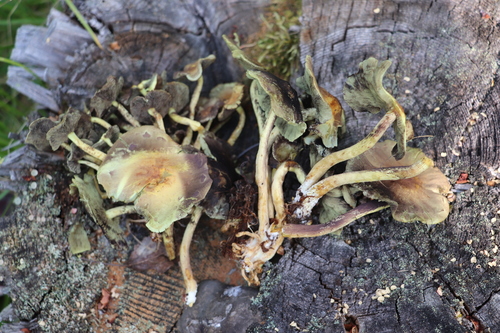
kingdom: Fungi
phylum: Basidiomycota
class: Agaricomycetes
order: Agaricales
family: Strophariaceae
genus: Hypholoma
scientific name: Hypholoma fasciculare
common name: Sulphur tuft
